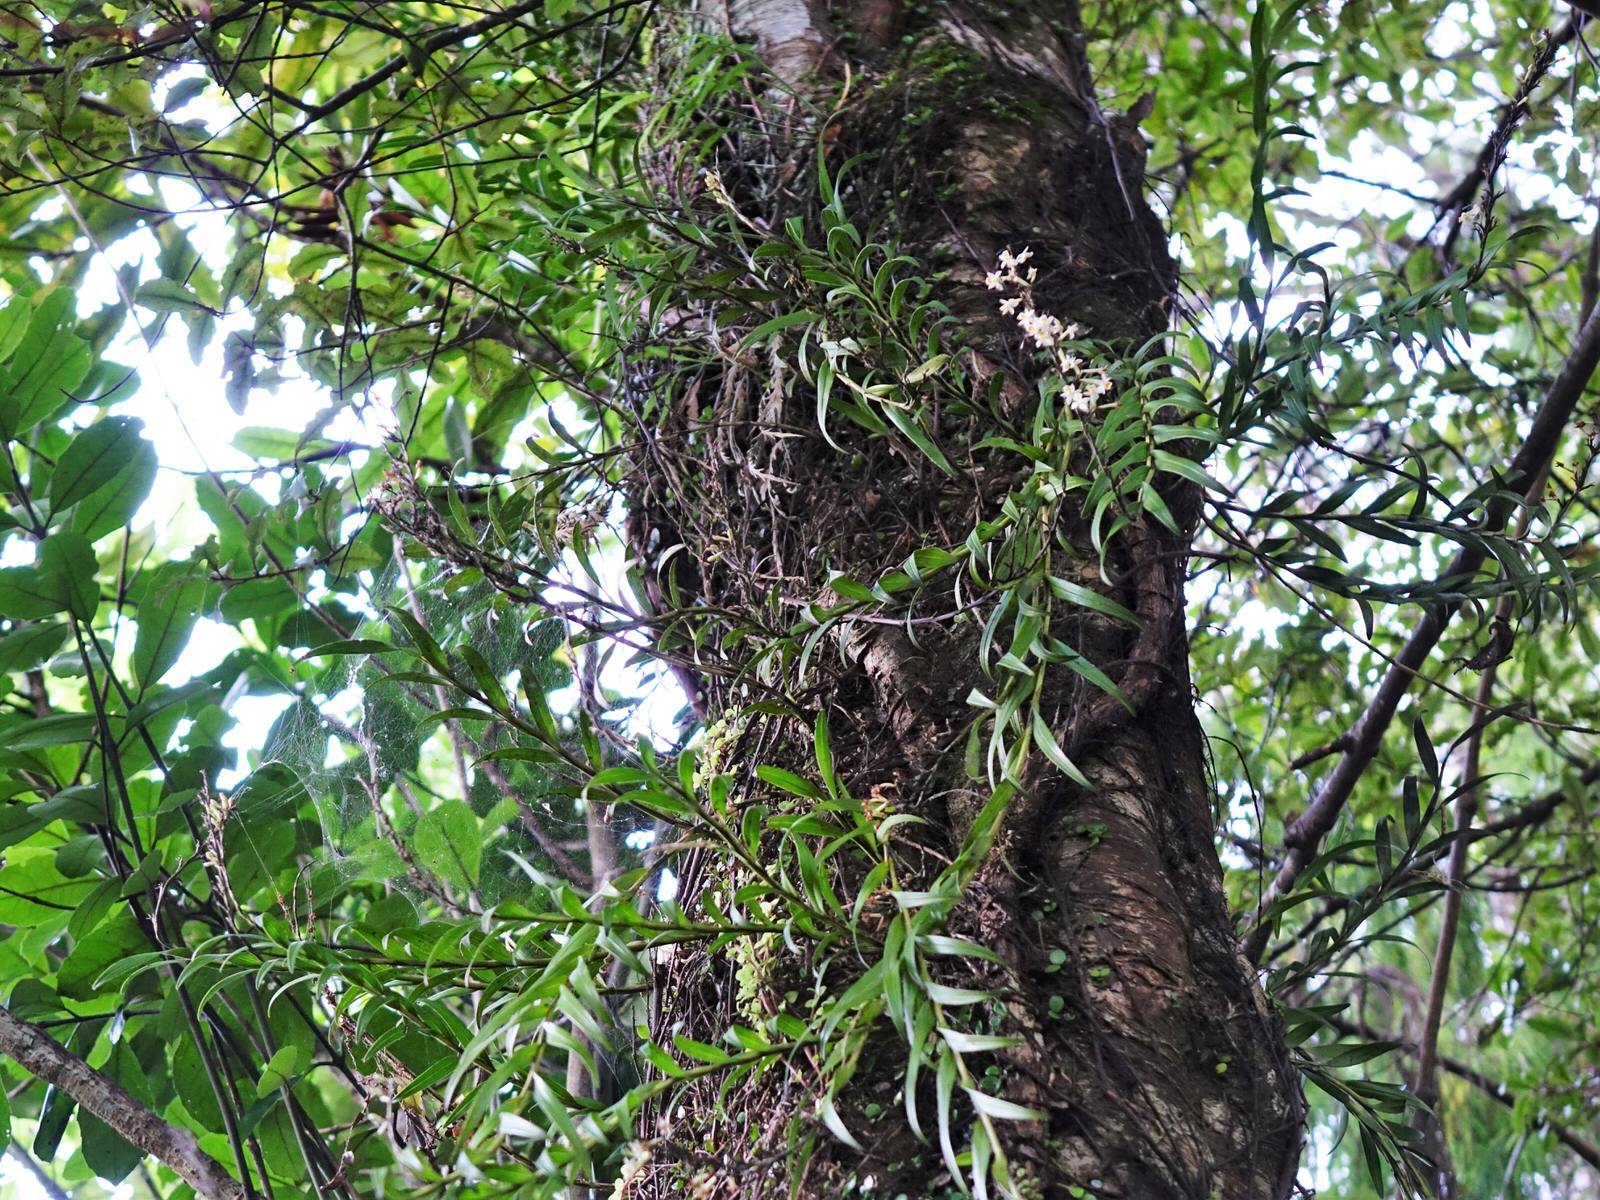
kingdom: Plantae
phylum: Tracheophyta
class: Liliopsida
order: Asparagales
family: Orchidaceae
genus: Earina
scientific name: Earina autumnalis
